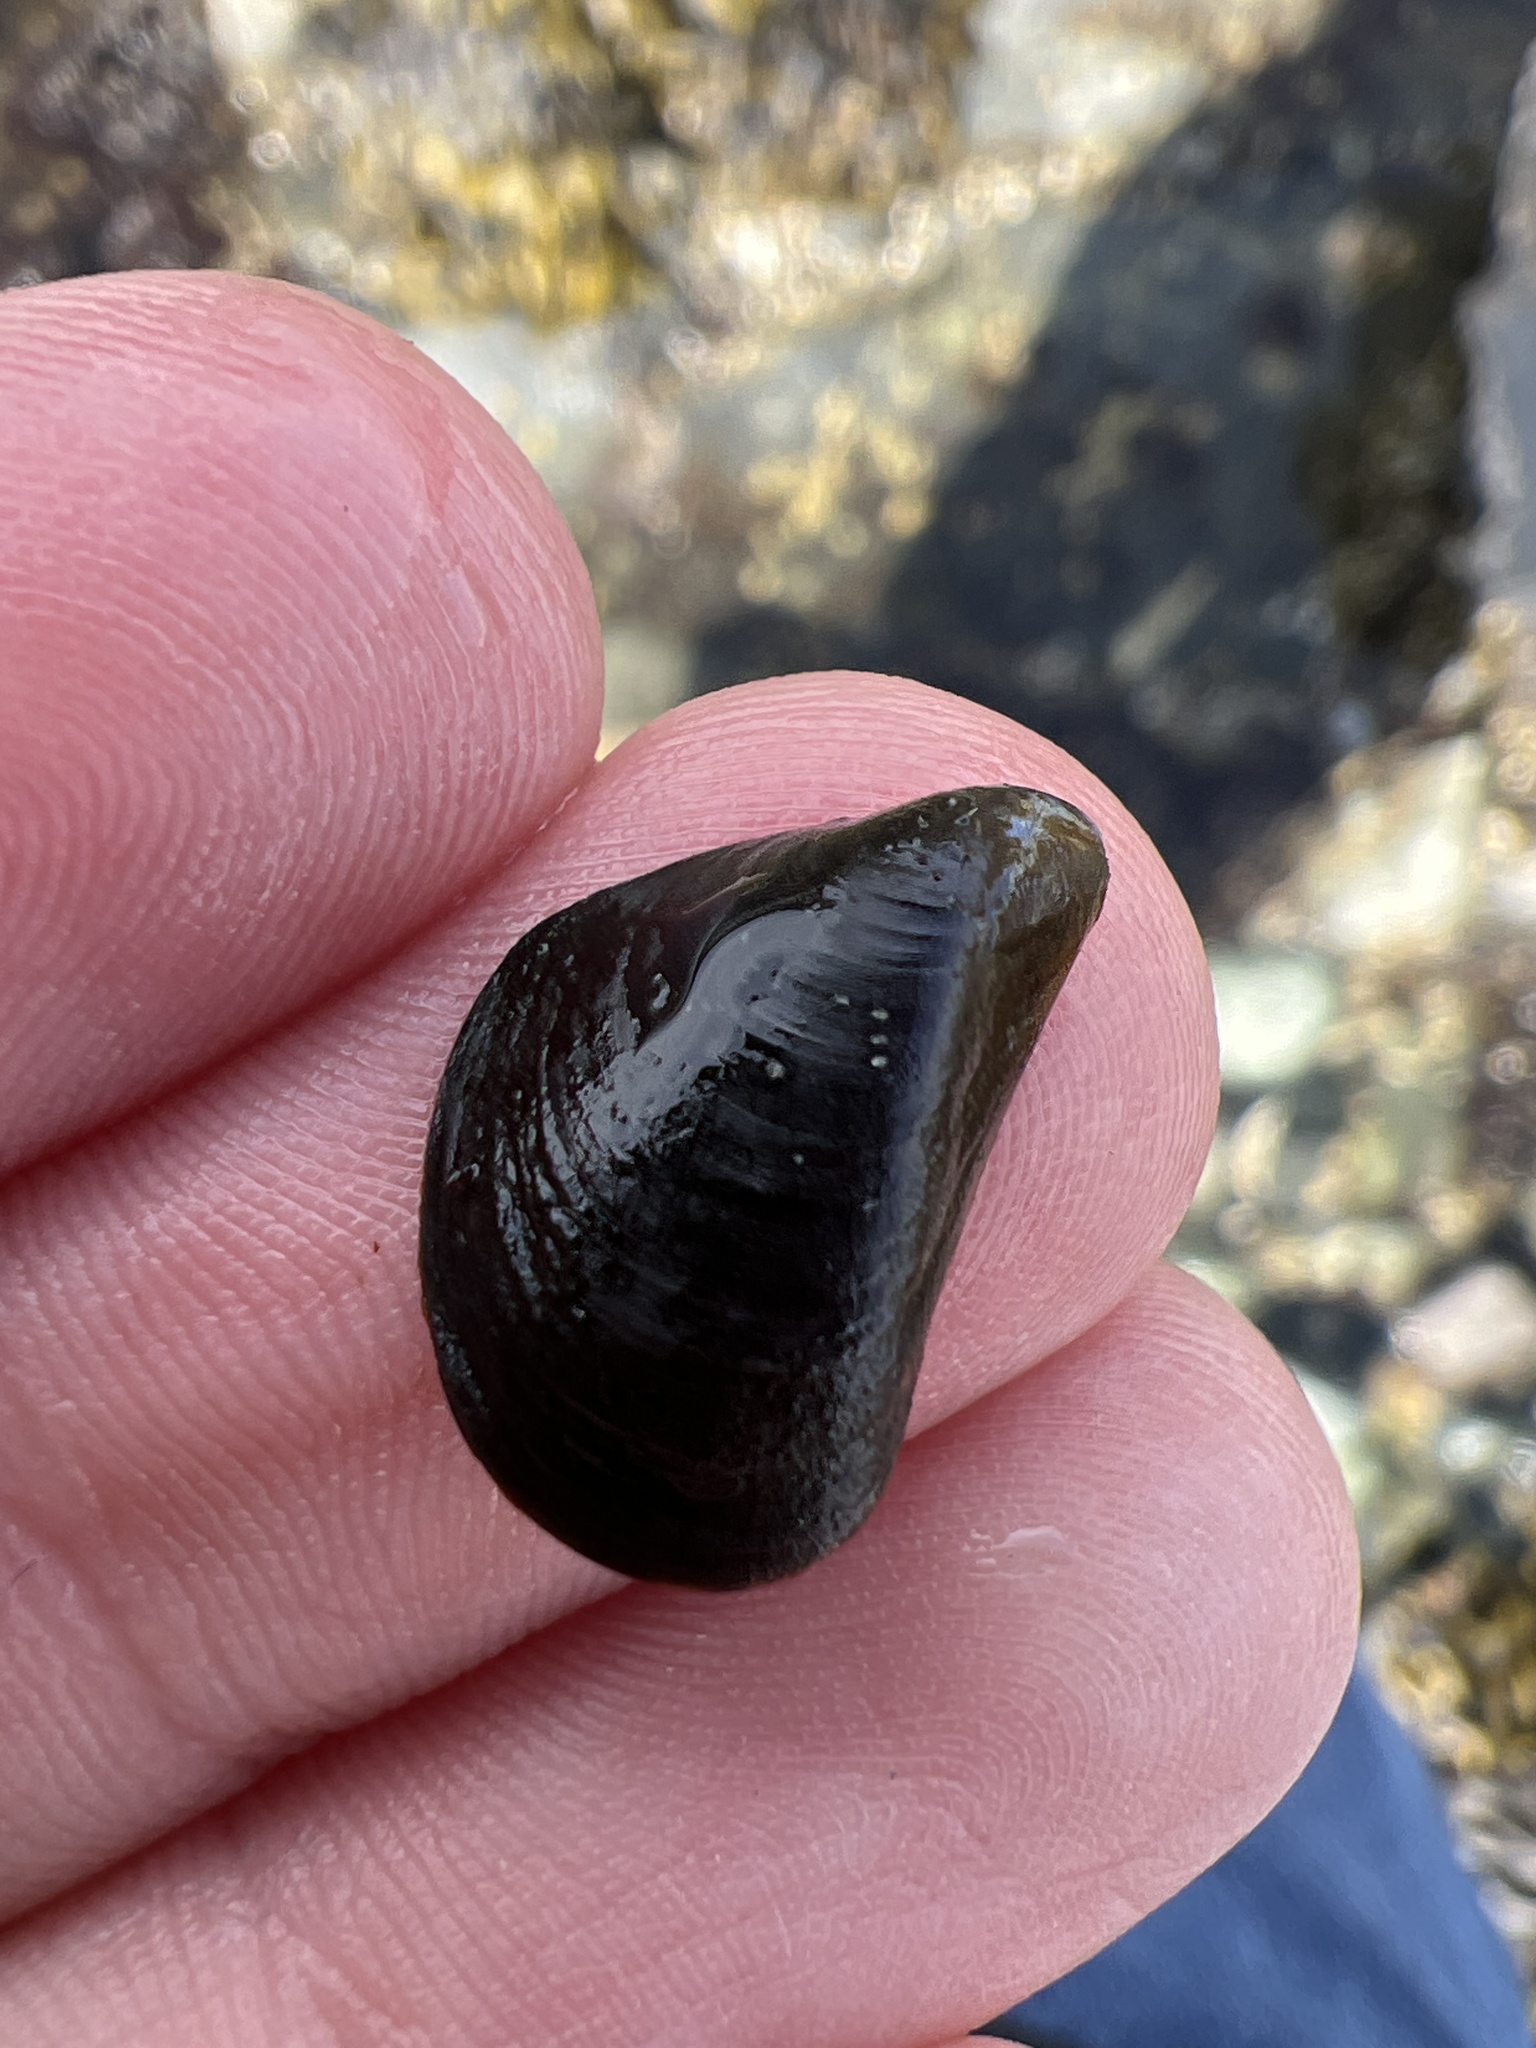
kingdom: Animalia
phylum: Mollusca
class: Bivalvia
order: Mytilida
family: Mytilidae
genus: Mytilus
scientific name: Mytilus
